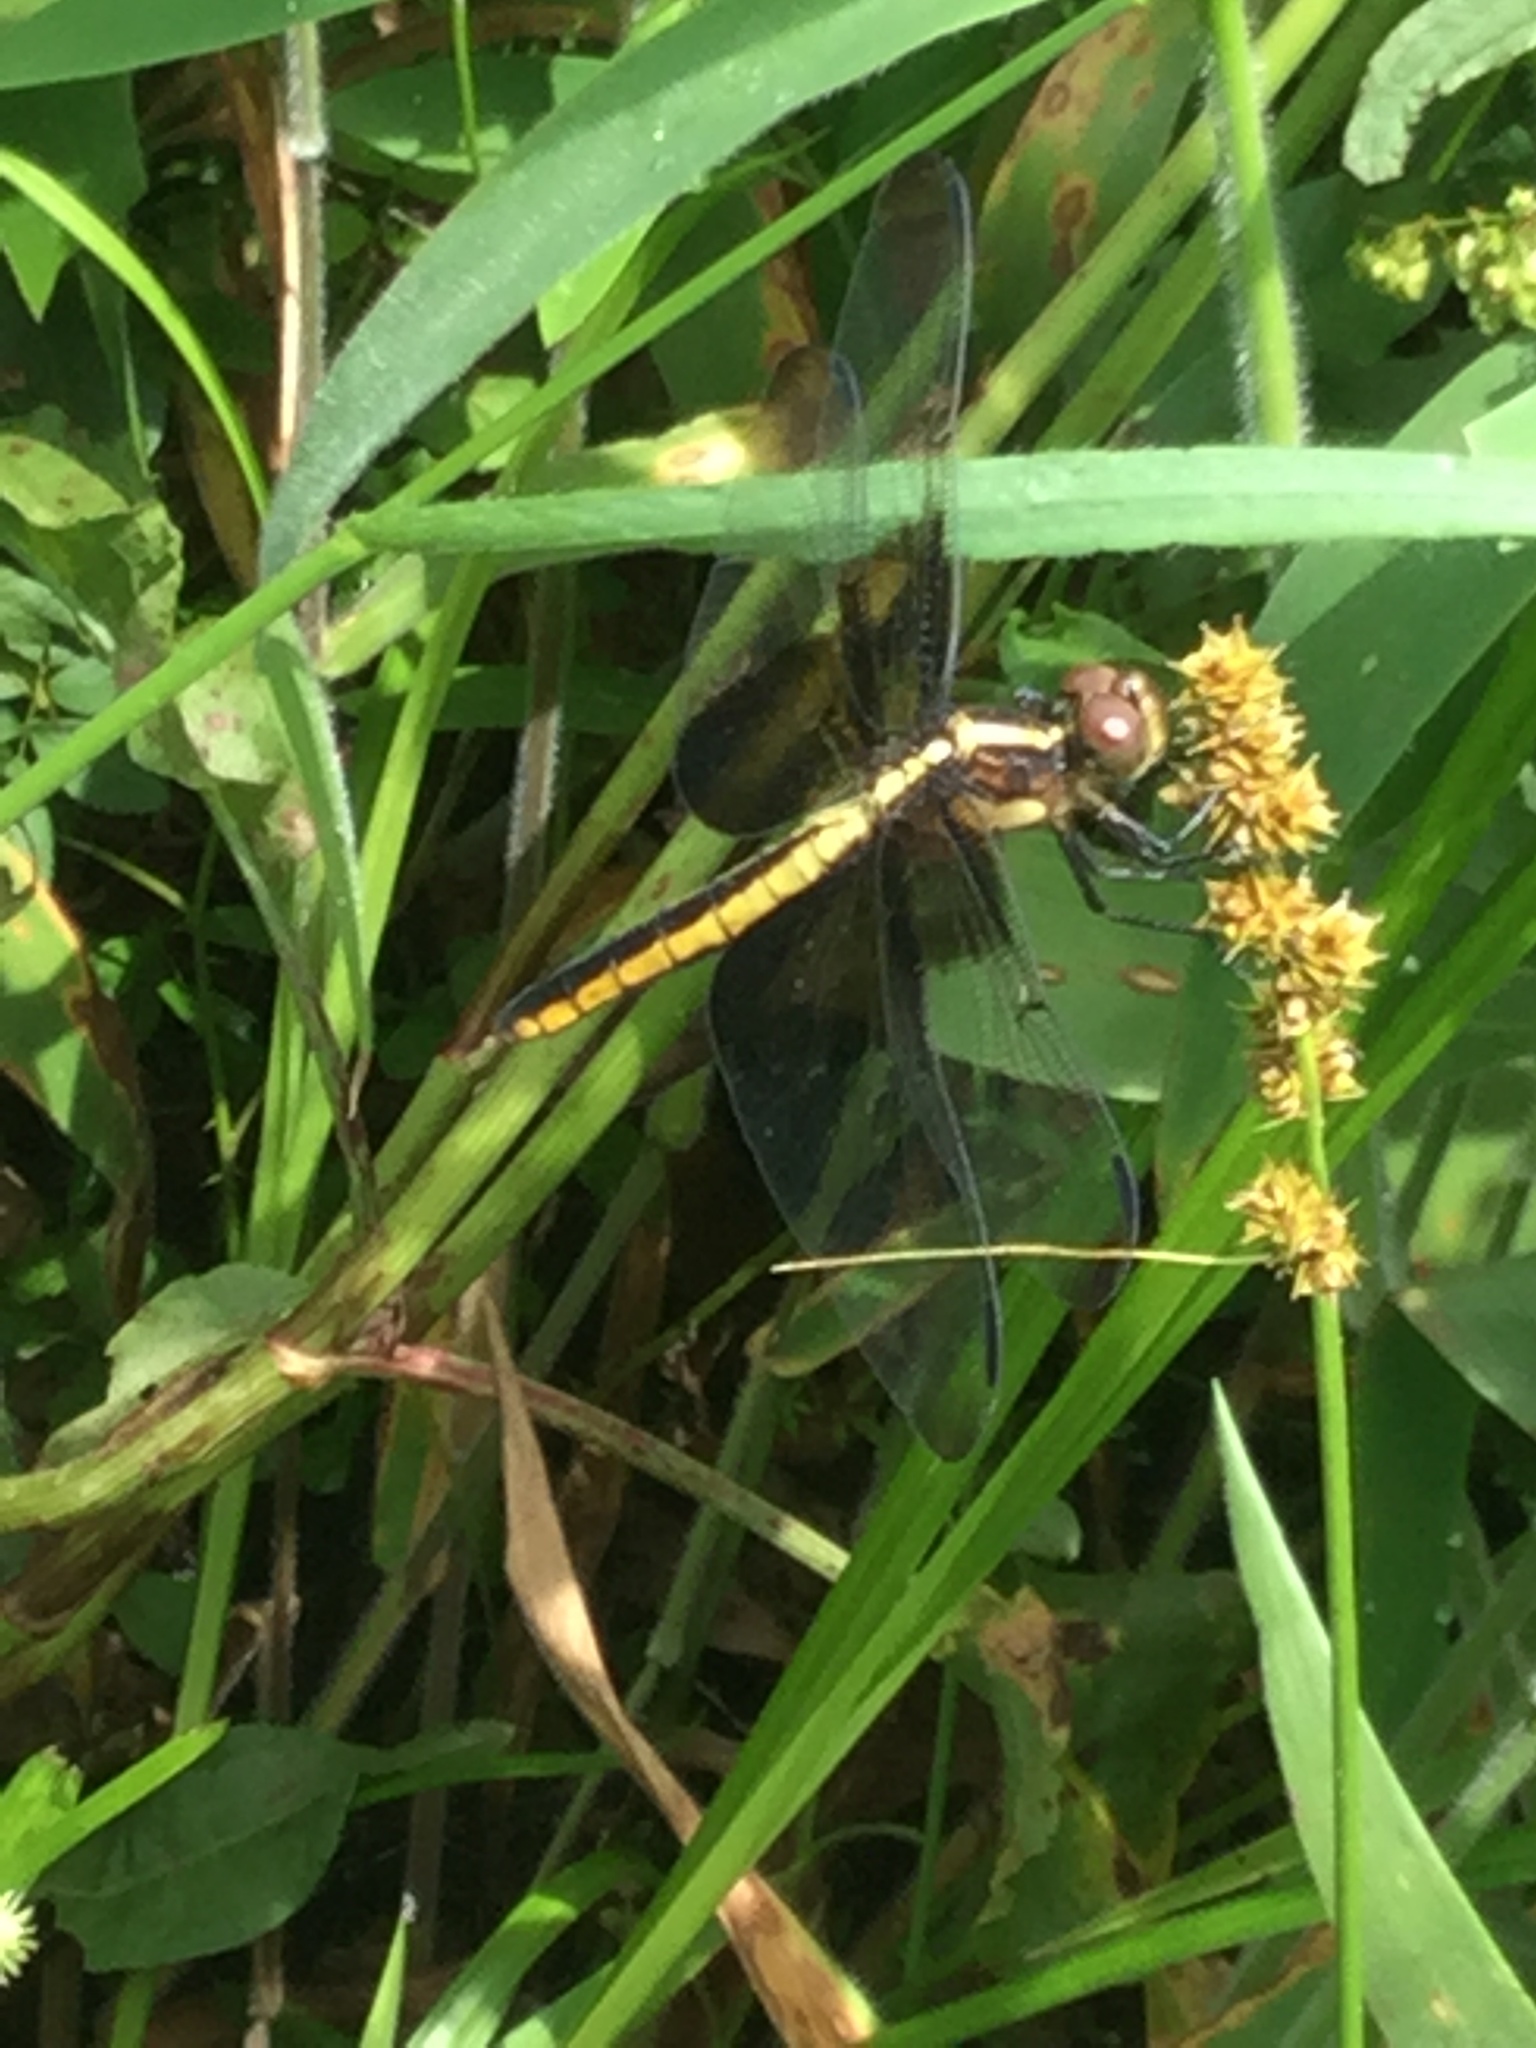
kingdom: Animalia
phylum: Arthropoda
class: Insecta
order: Odonata
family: Libellulidae
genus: Libellula
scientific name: Libellula luctuosa
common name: Widow skimmer
